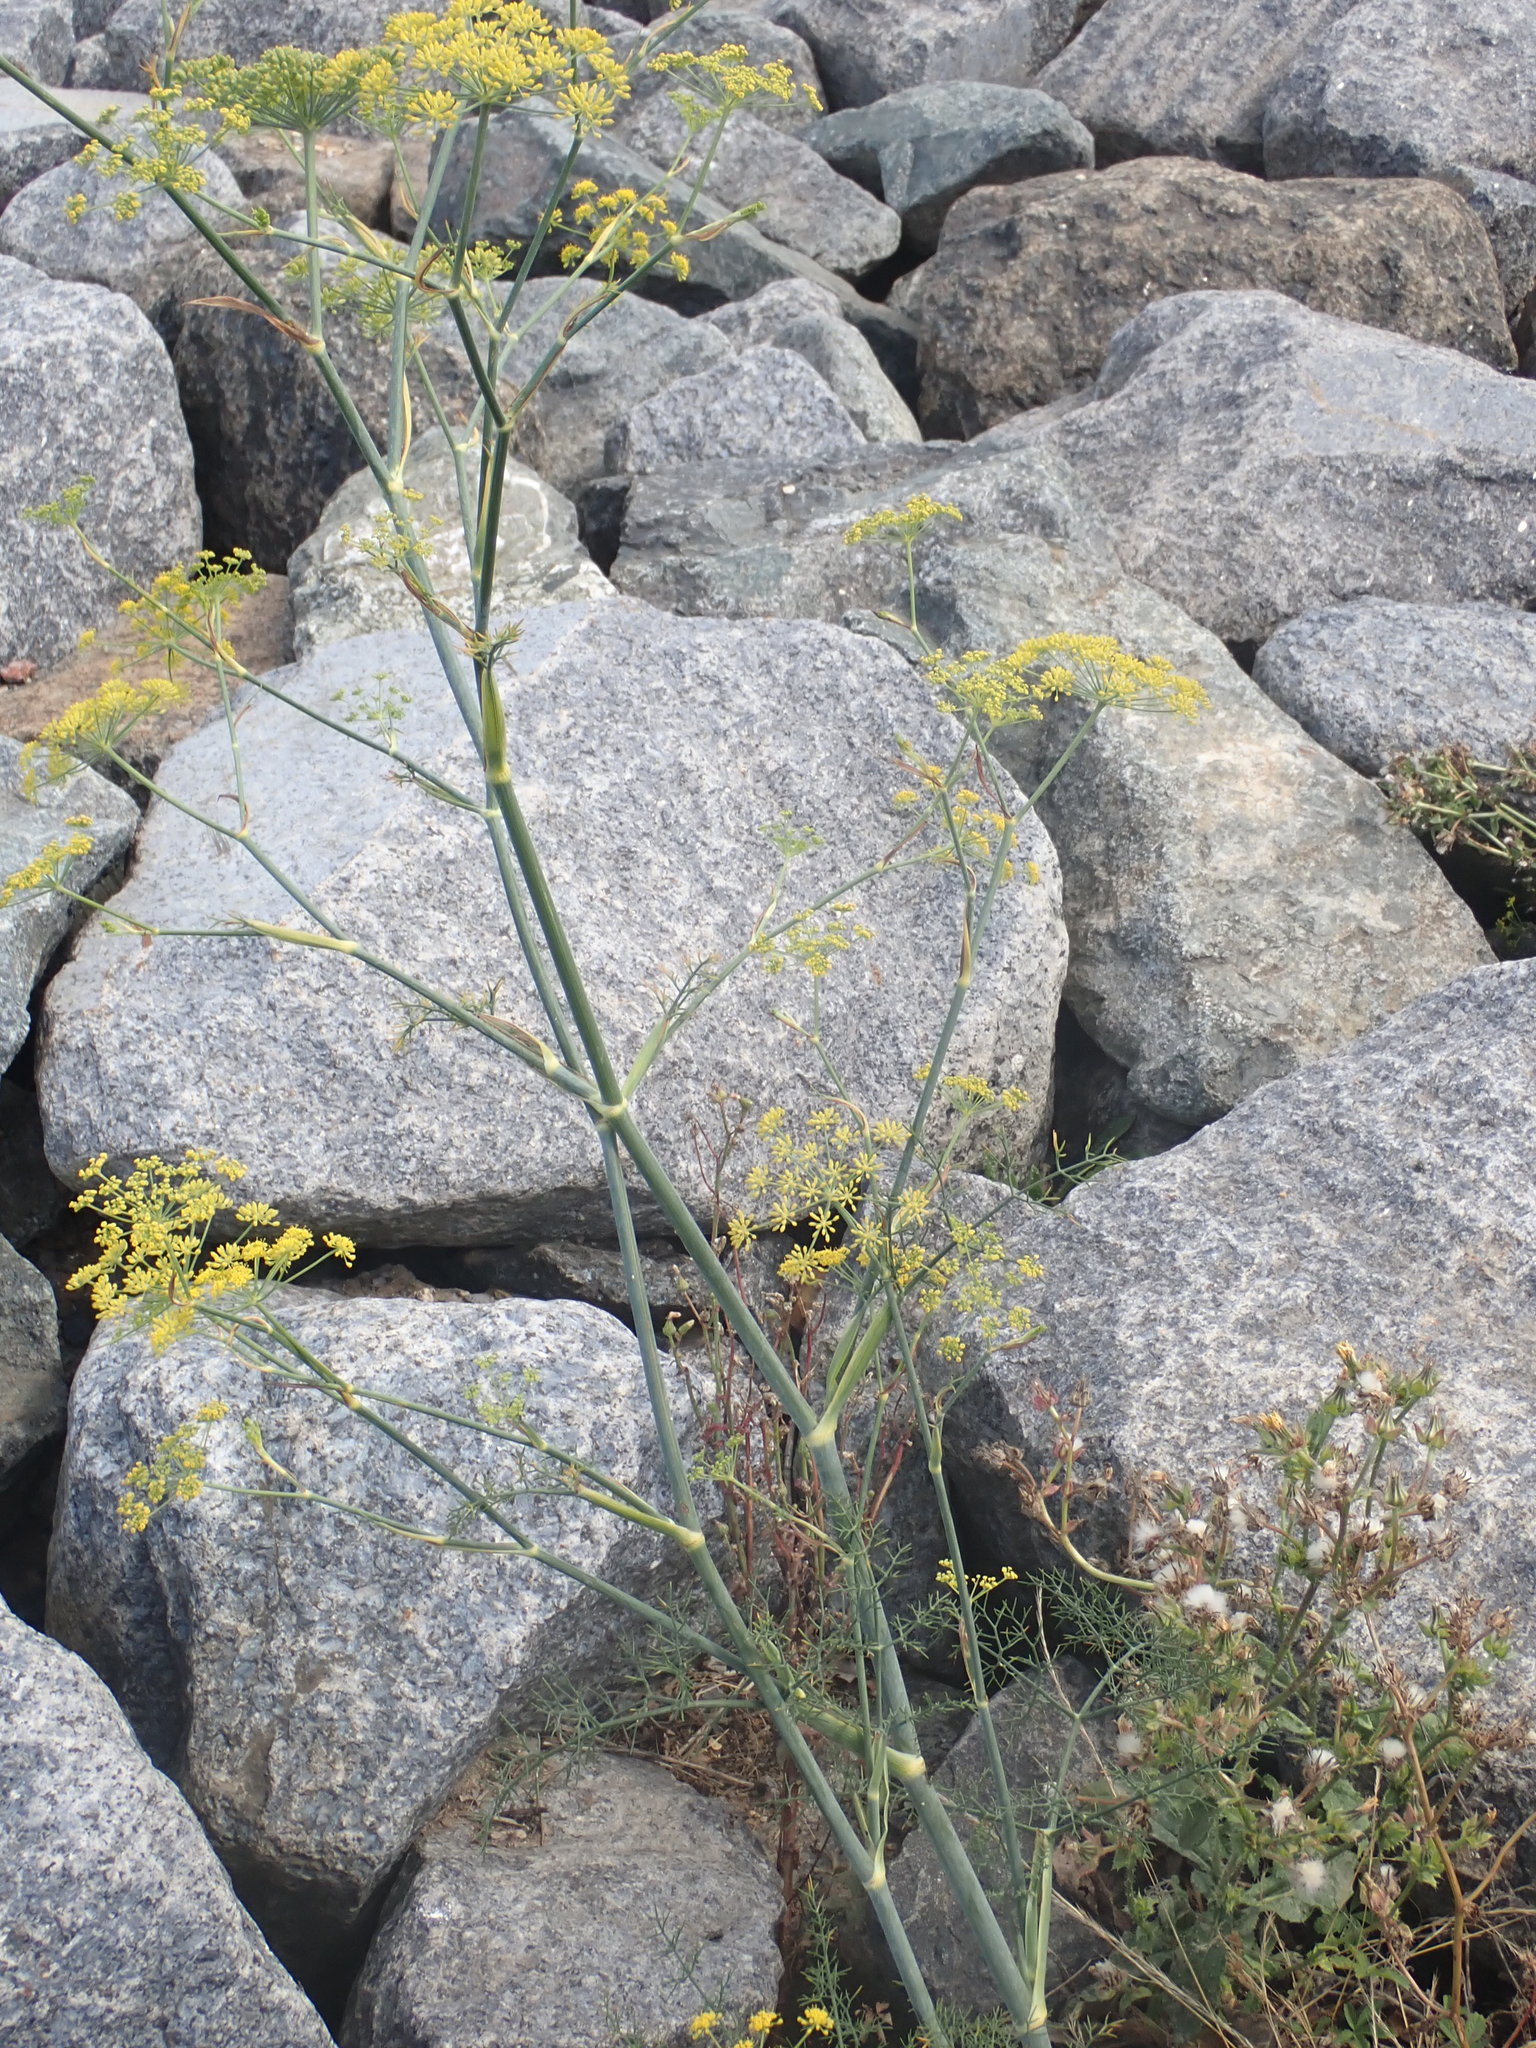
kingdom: Plantae
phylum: Tracheophyta
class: Magnoliopsida
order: Apiales
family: Apiaceae
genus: Foeniculum
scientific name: Foeniculum vulgare
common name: Fennel
